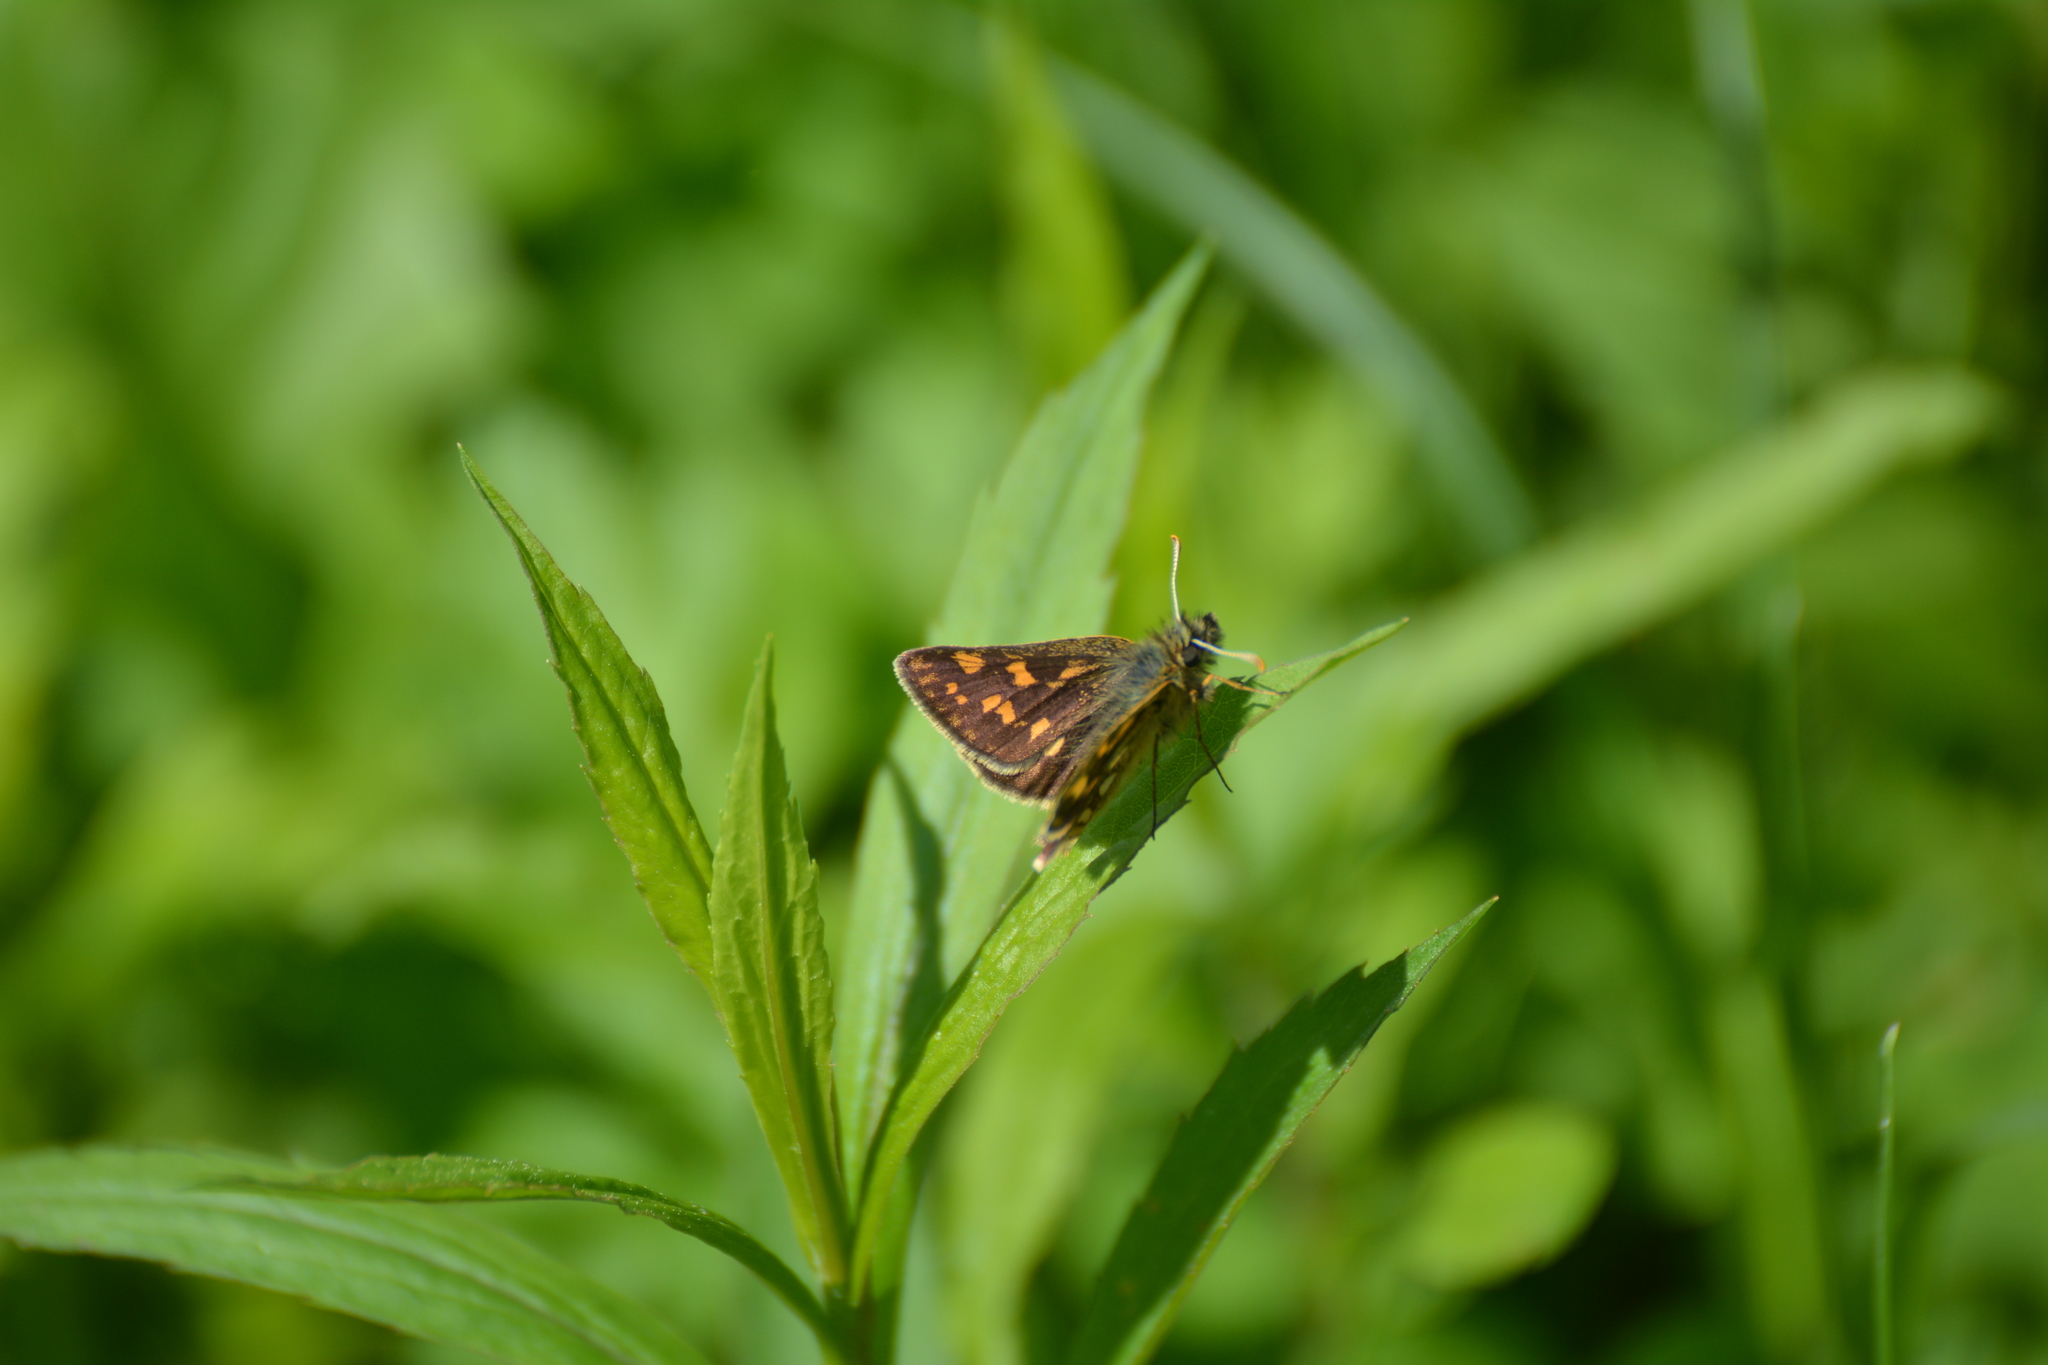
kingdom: Animalia
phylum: Arthropoda
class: Insecta
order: Lepidoptera
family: Hesperiidae
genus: Carterocephalus
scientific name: Carterocephalus palaemon
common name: Chequered skipper
